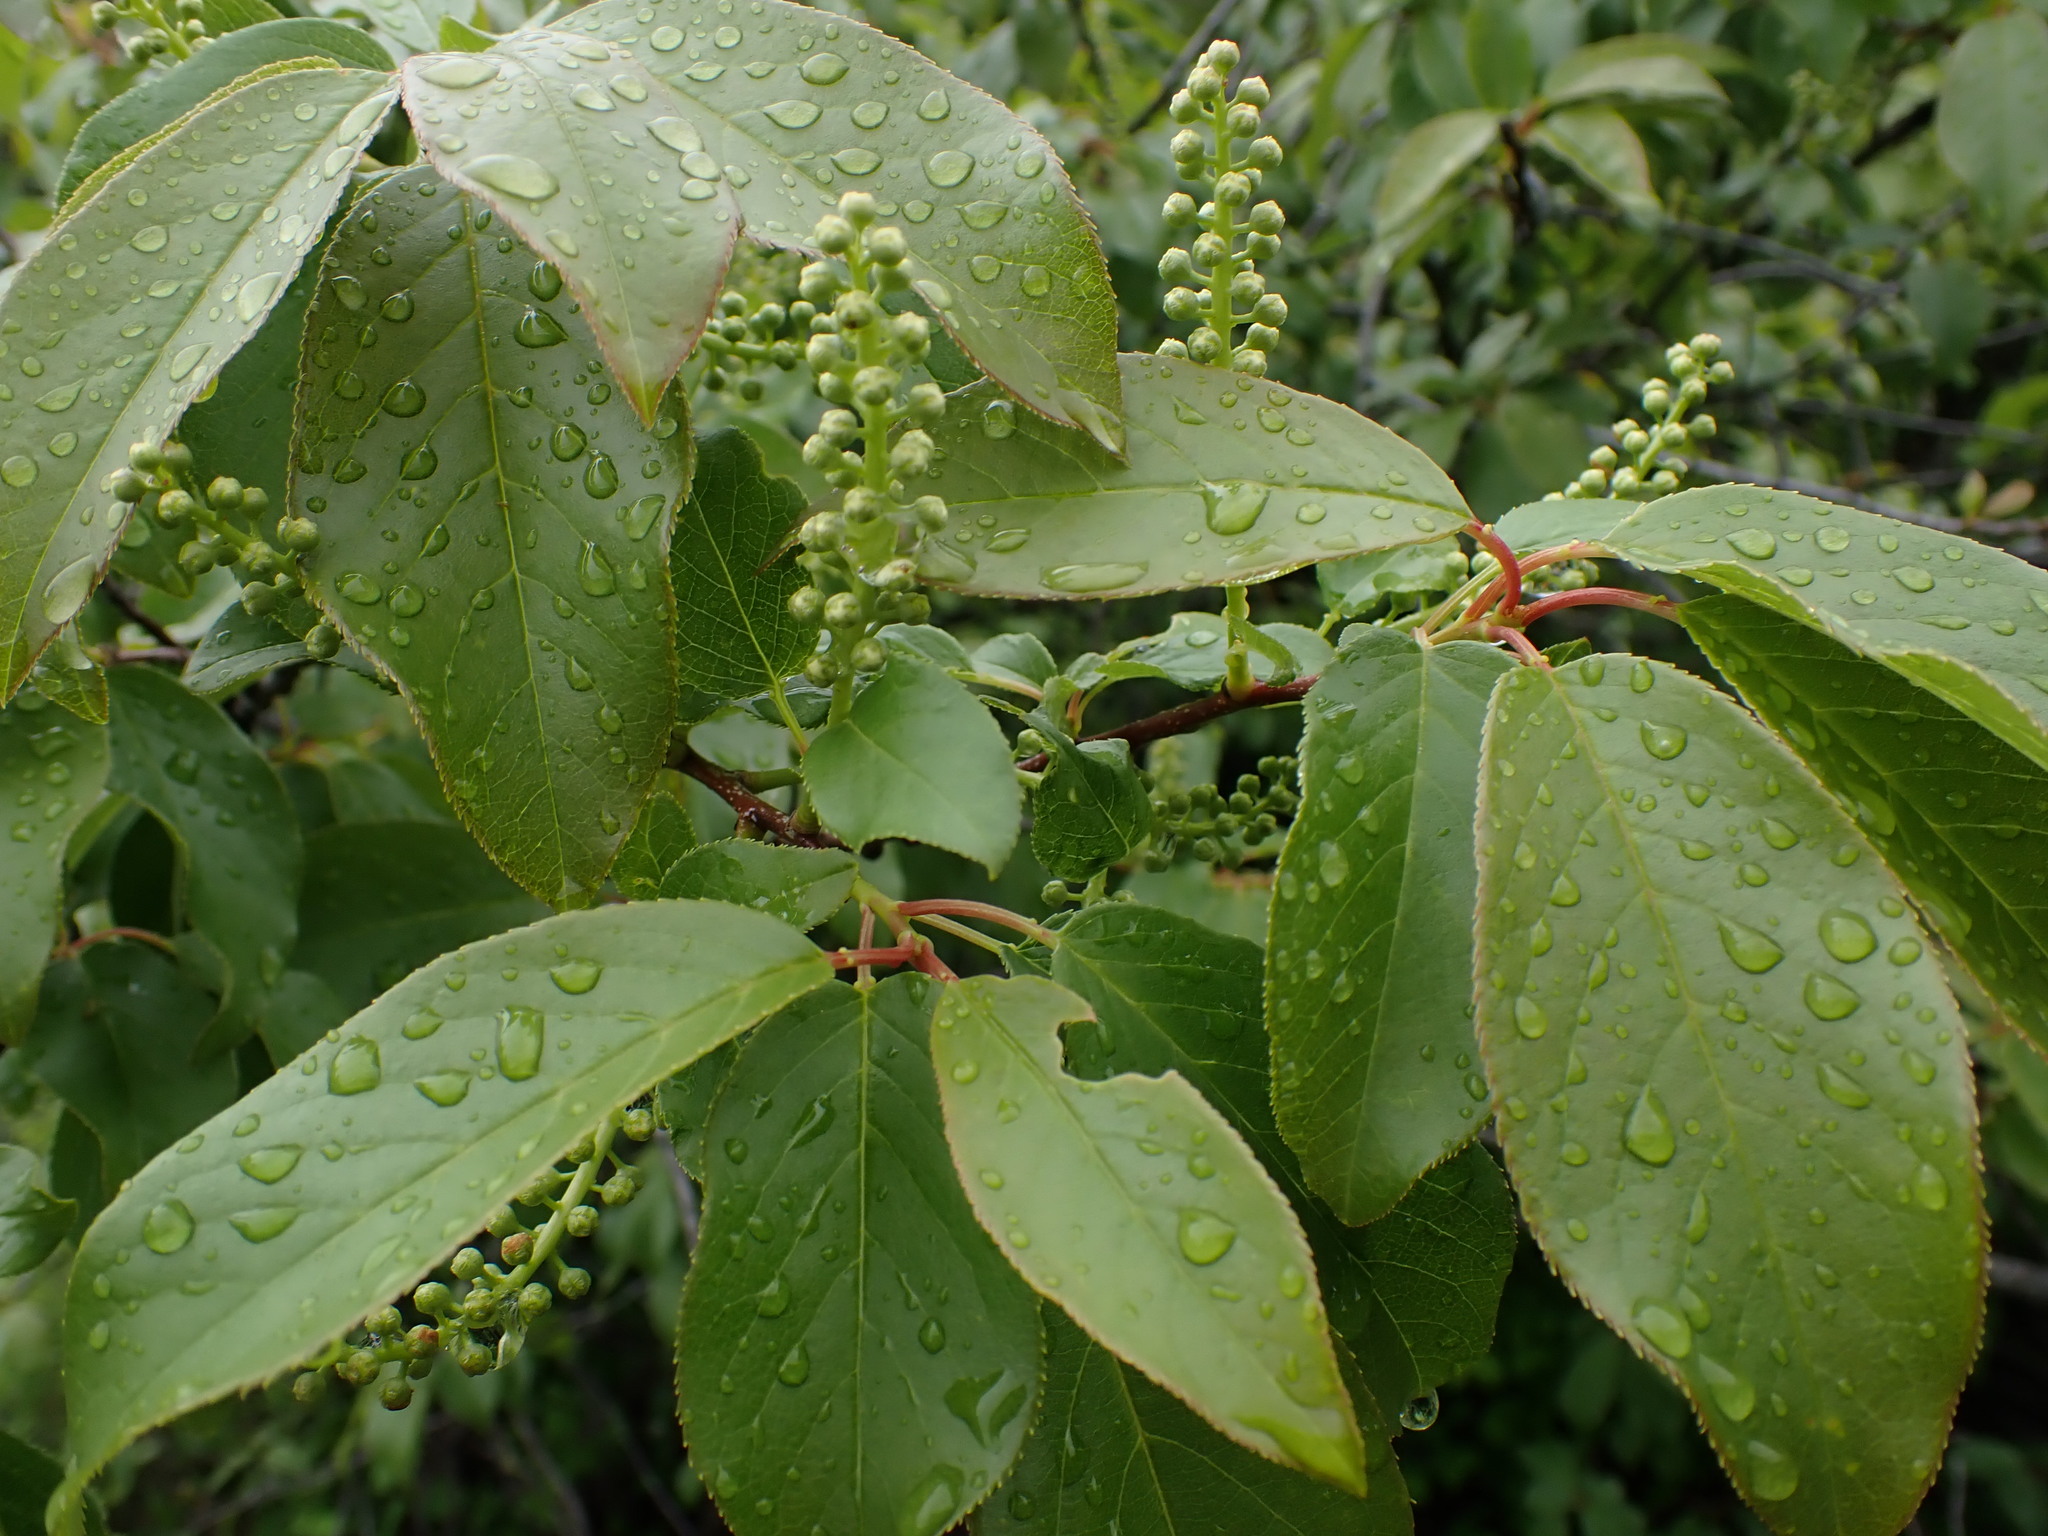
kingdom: Plantae
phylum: Tracheophyta
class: Magnoliopsida
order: Rosales
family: Rosaceae
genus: Prunus
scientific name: Prunus virginiana
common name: Chokecherry
